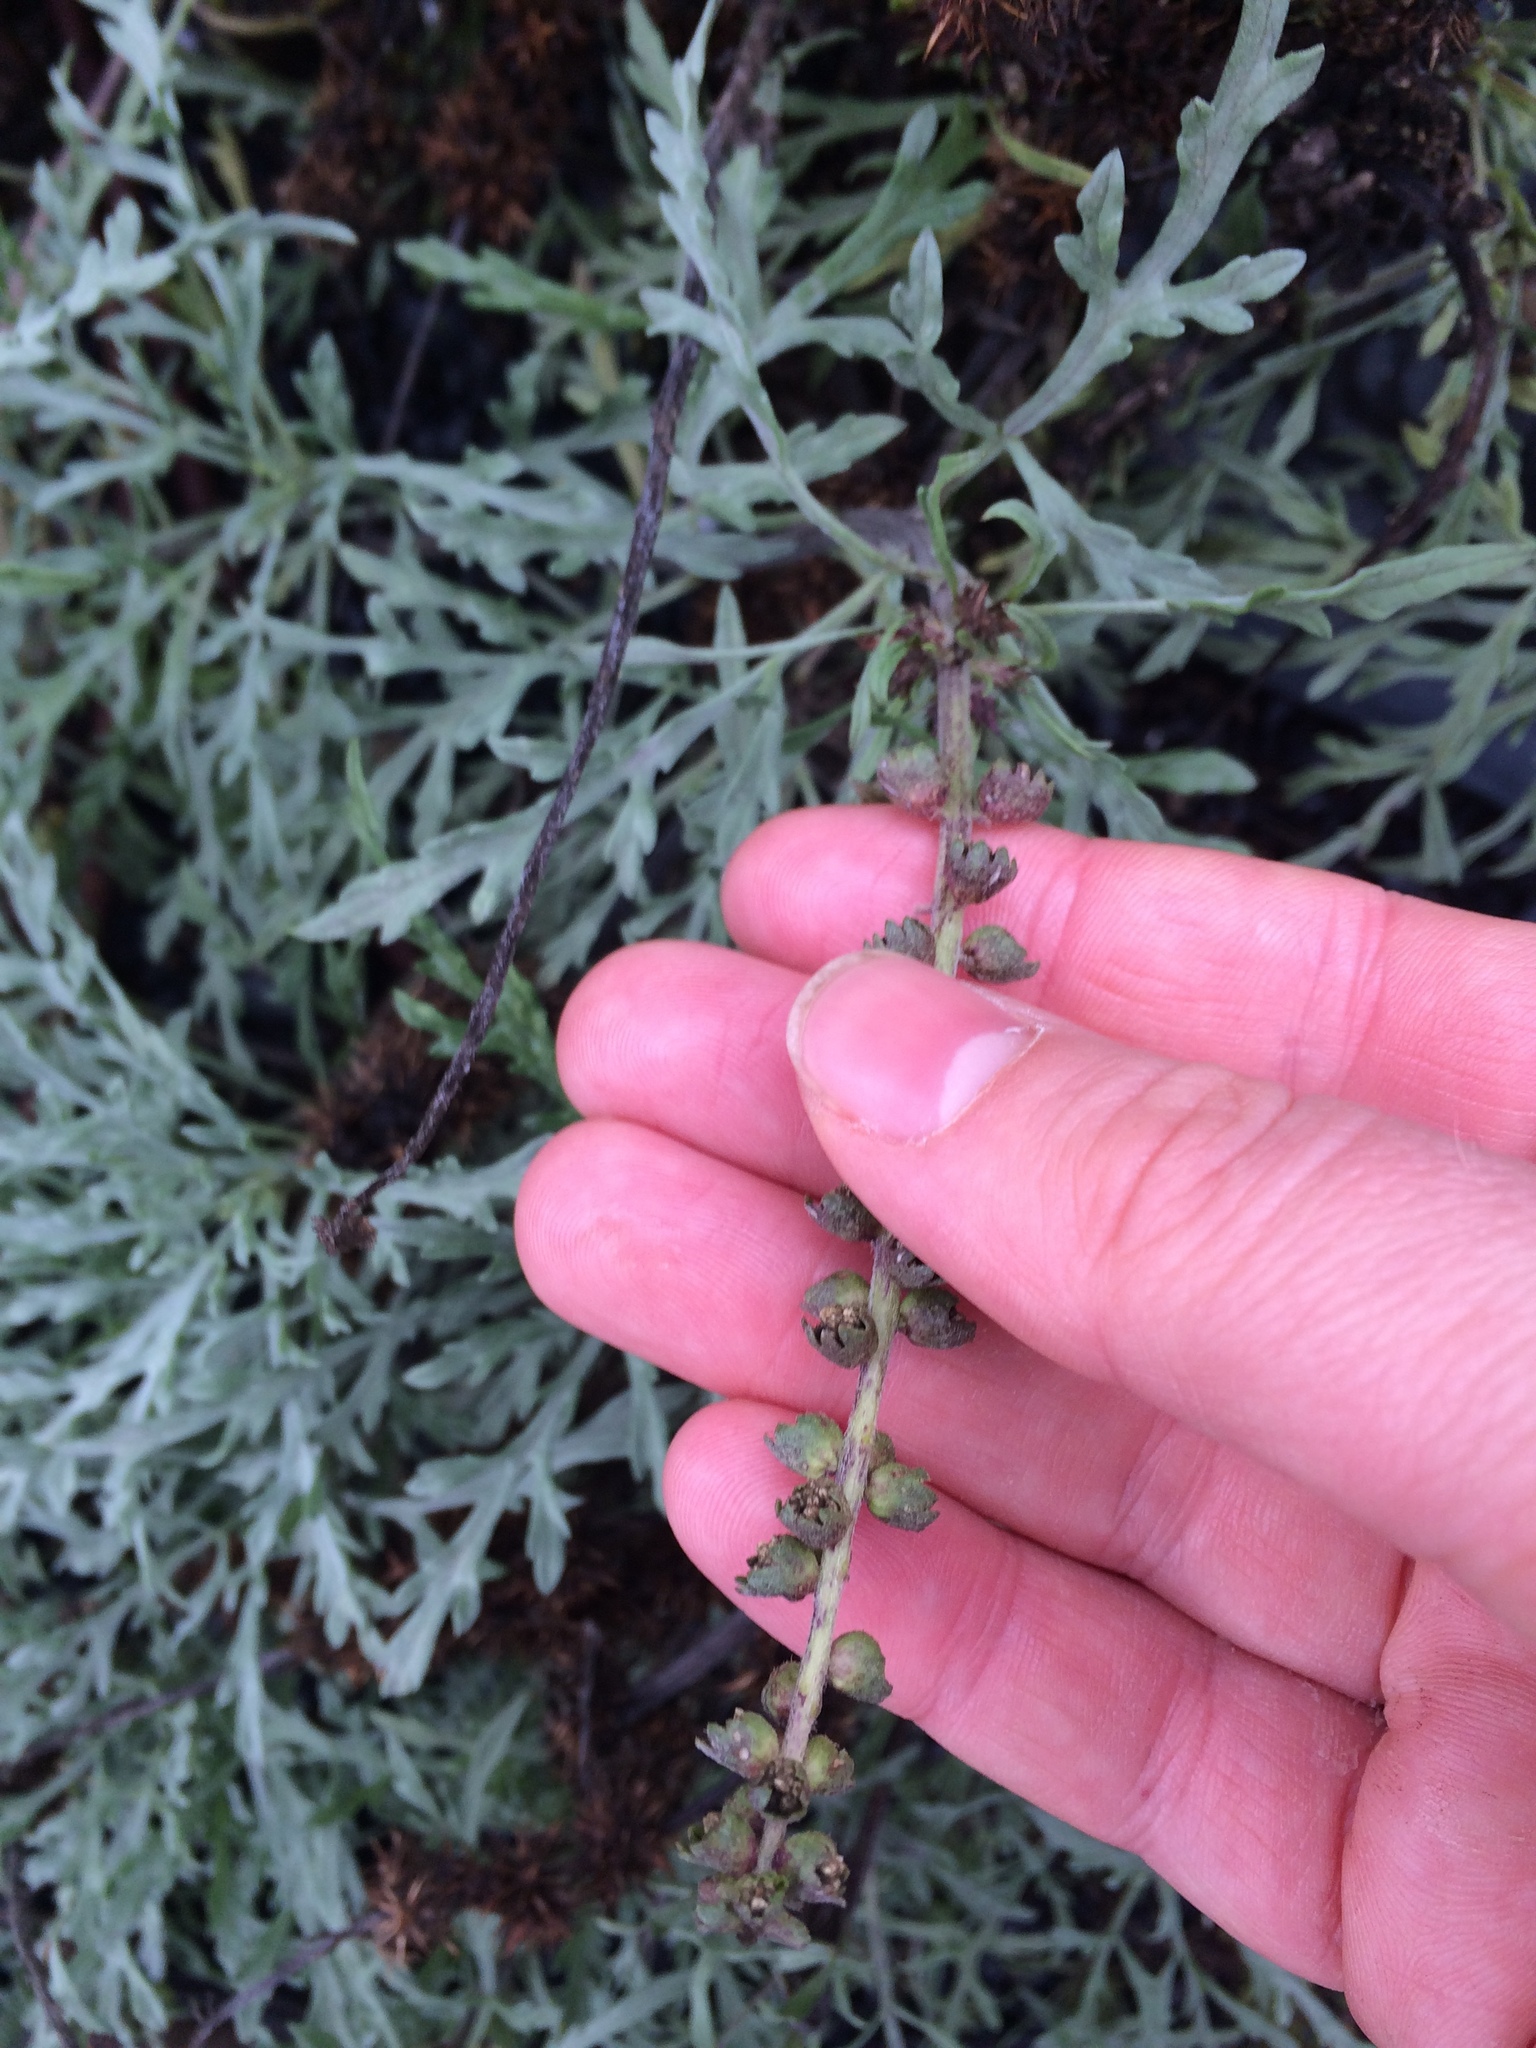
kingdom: Plantae
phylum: Tracheophyta
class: Magnoliopsida
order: Asterales
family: Asteraceae
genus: Ambrosia
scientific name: Ambrosia chamissonis
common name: Beachbur
